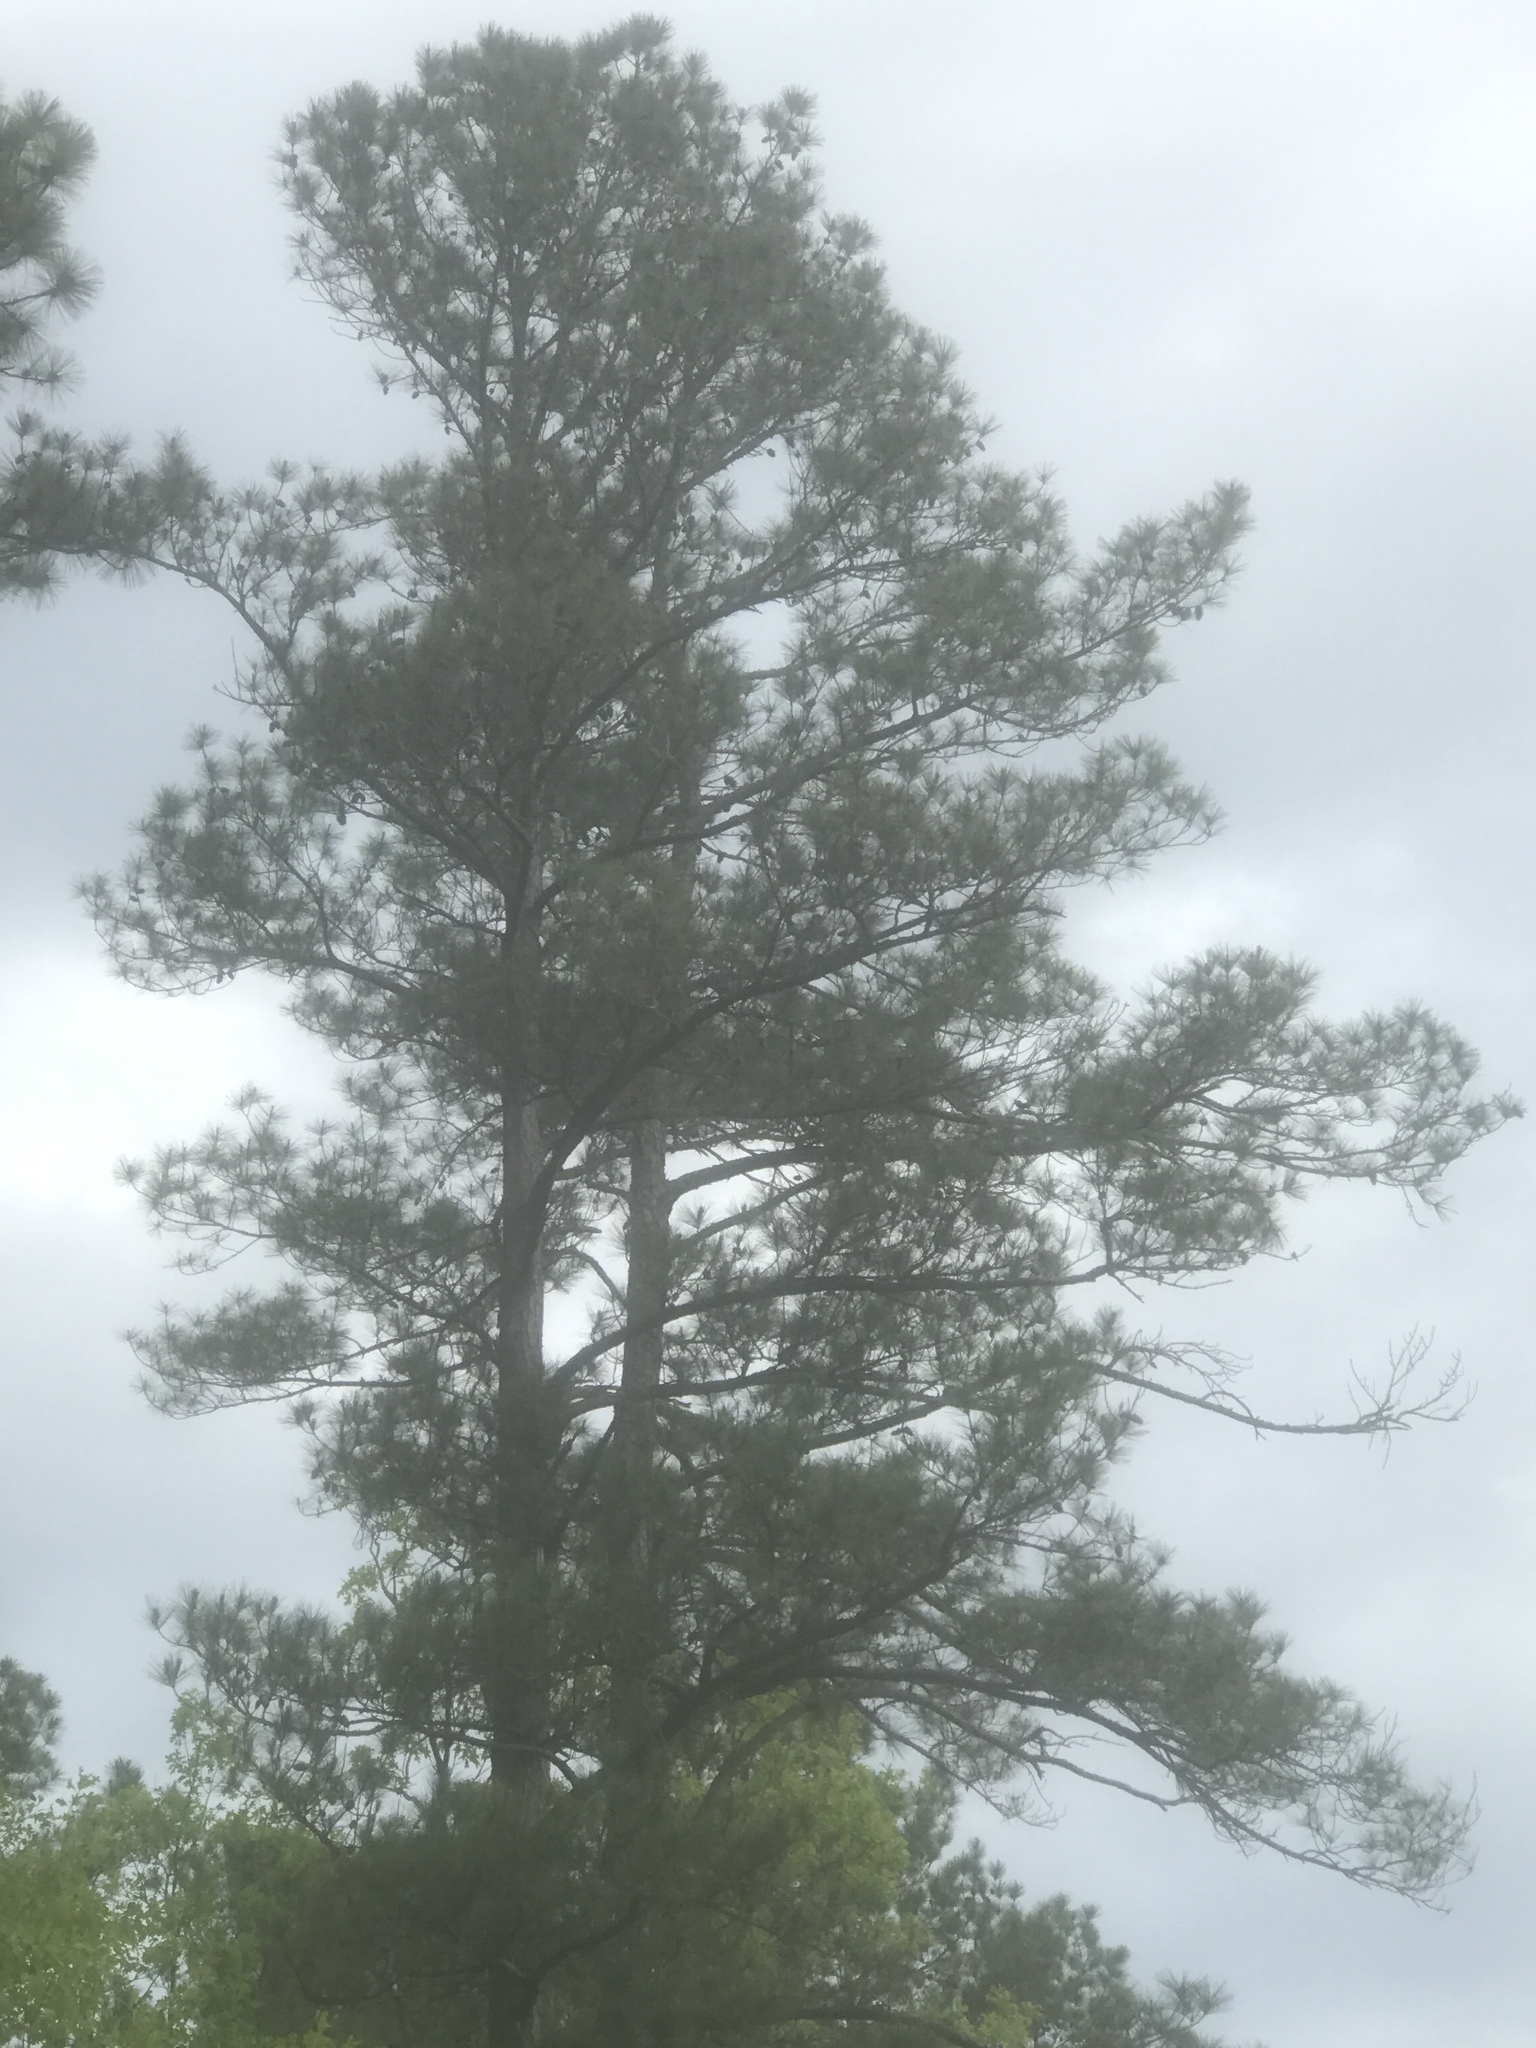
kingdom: Plantae
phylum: Tracheophyta
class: Pinopsida
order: Pinales
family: Pinaceae
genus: Pinus
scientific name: Pinus taeda
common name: Loblolly pine
